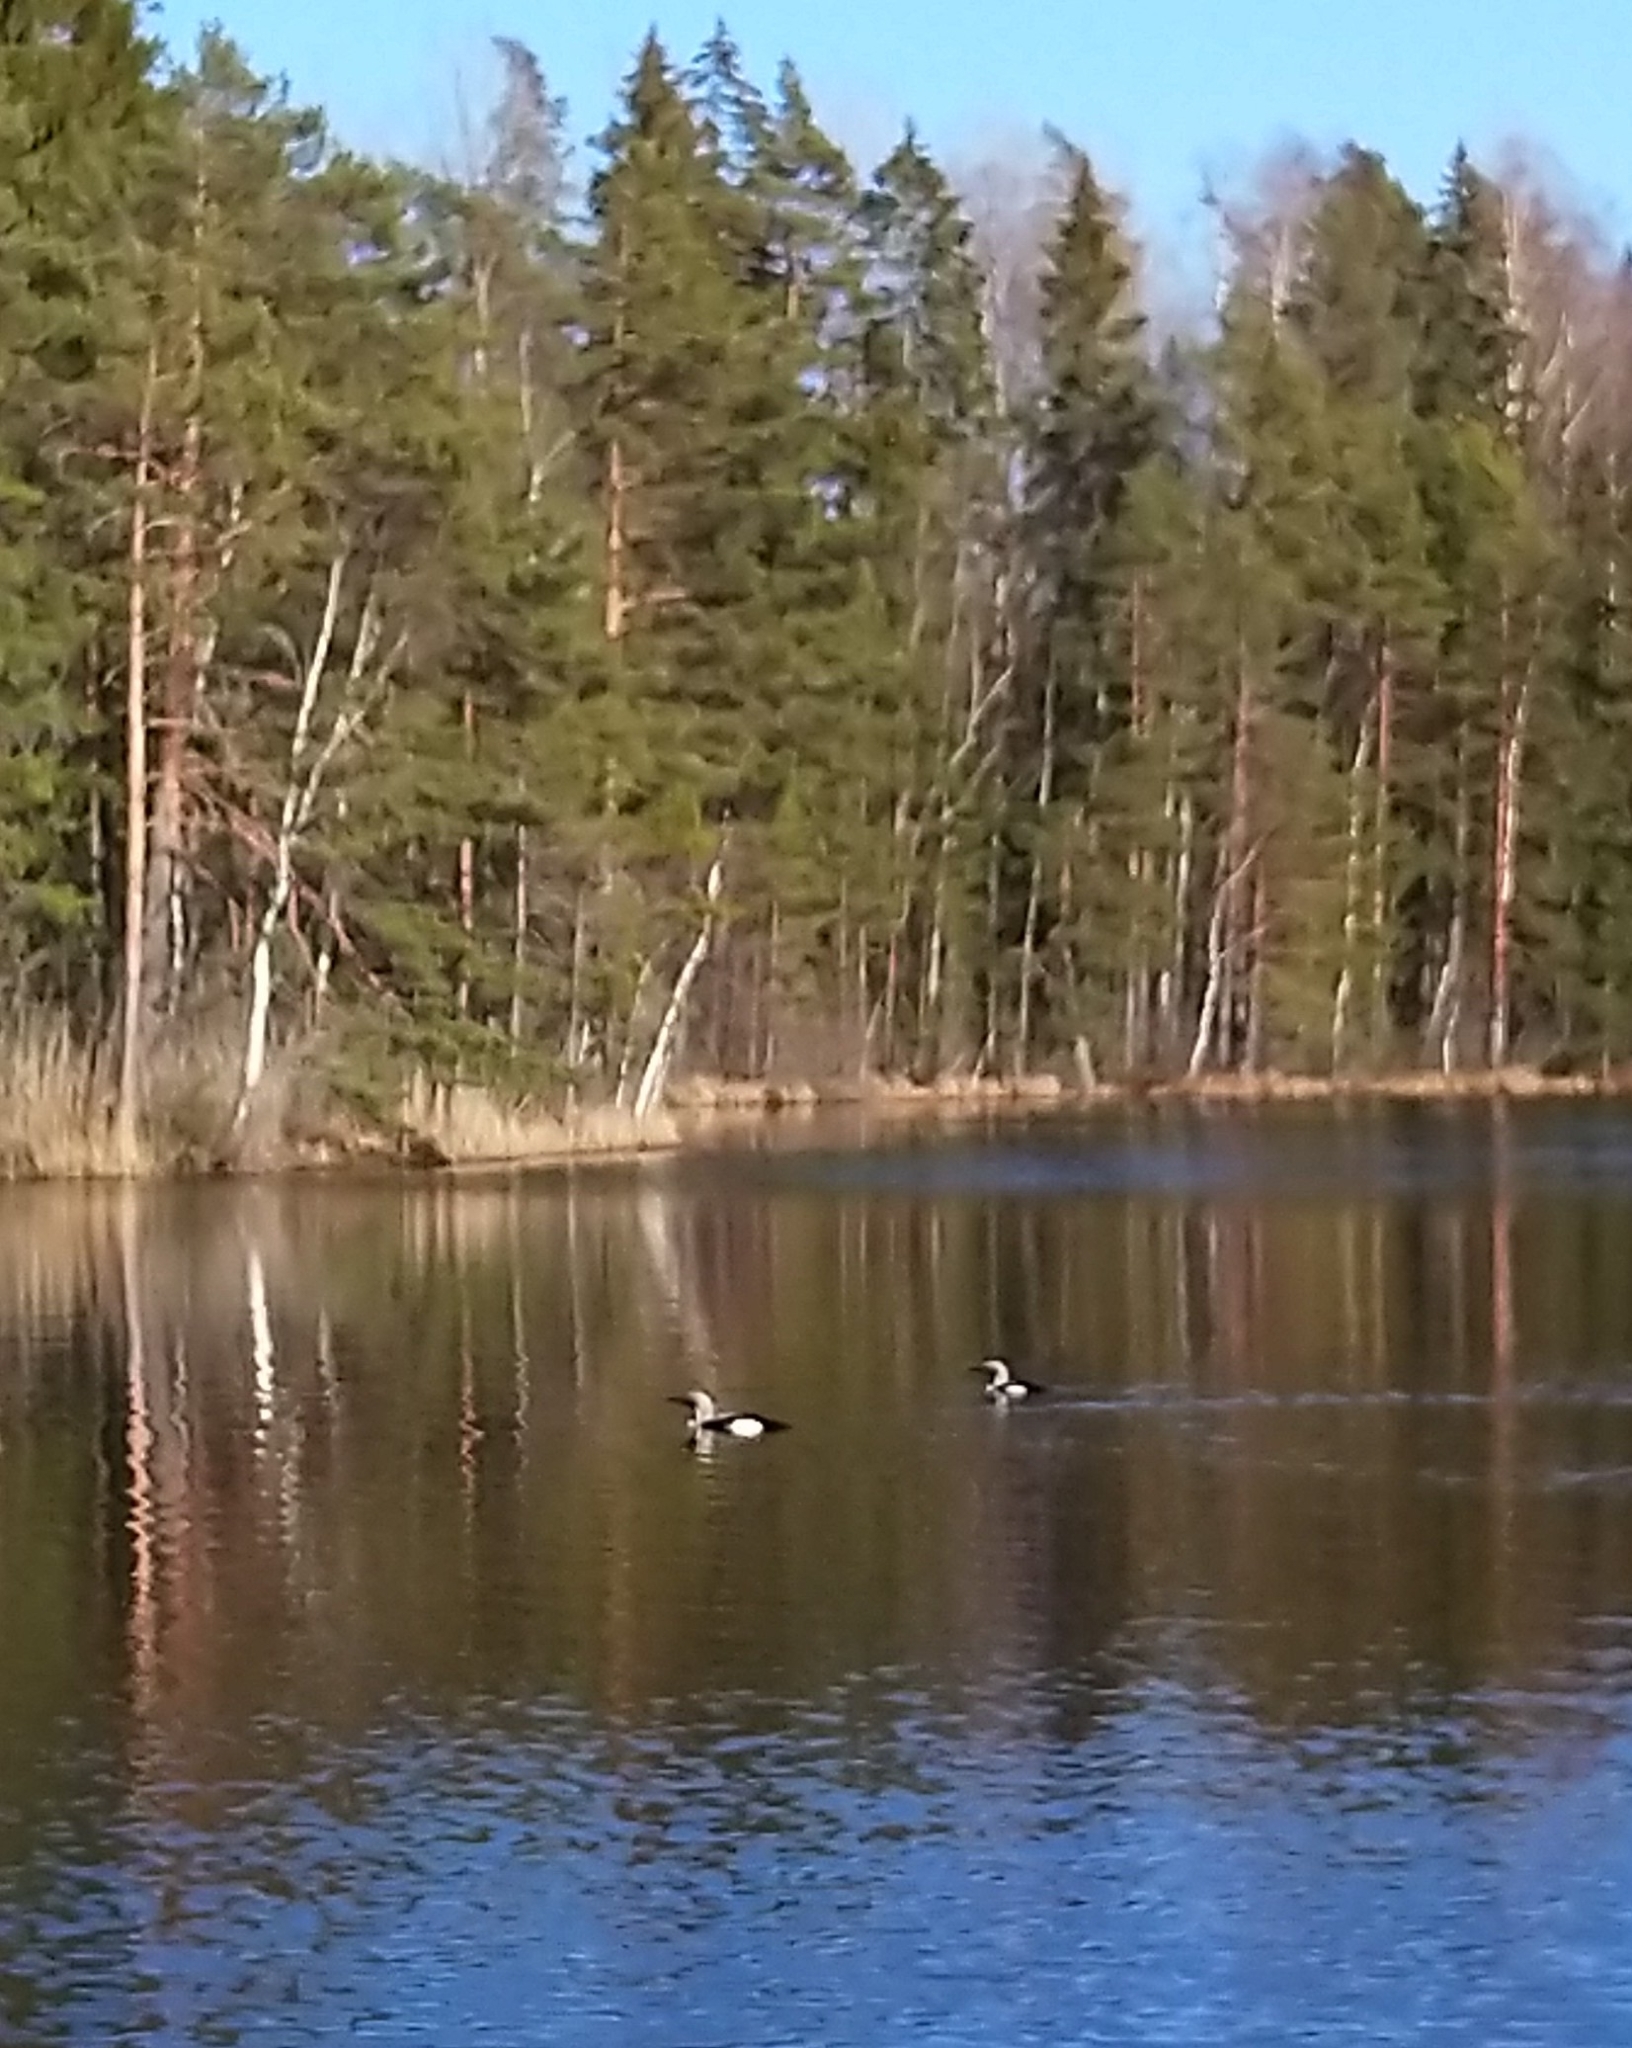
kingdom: Animalia
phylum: Chordata
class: Aves
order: Gaviiformes
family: Gaviidae
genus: Gavia
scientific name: Gavia arctica
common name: Black-throated loon
